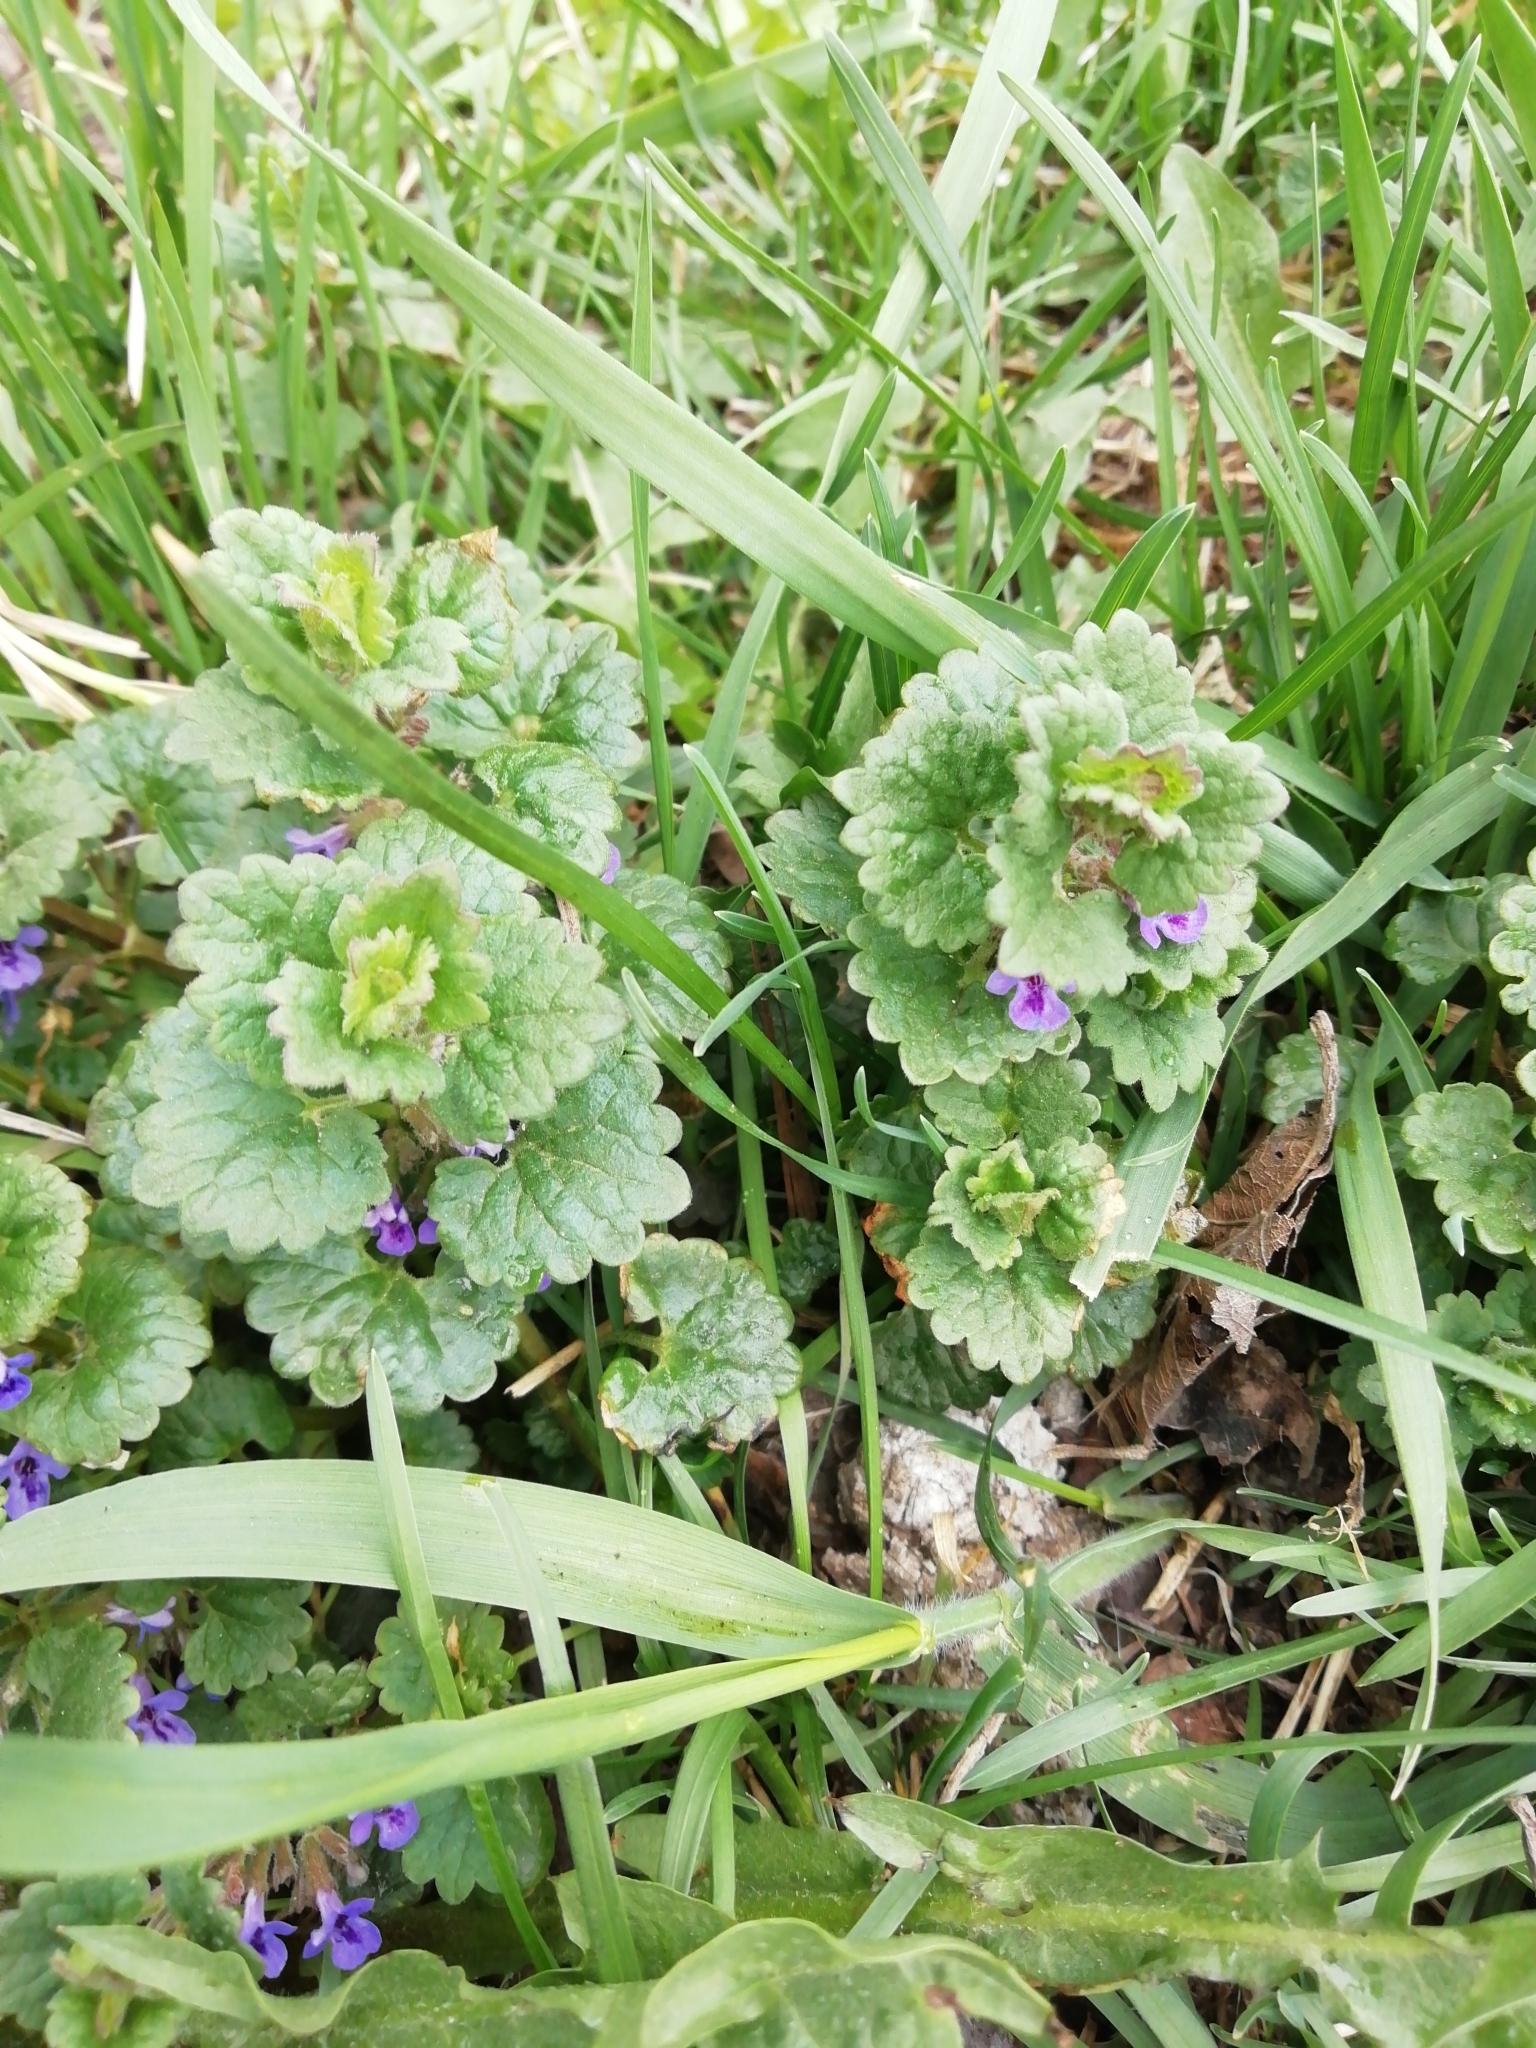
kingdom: Plantae
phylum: Tracheophyta
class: Magnoliopsida
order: Lamiales
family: Lamiaceae
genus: Glechoma
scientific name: Glechoma hederacea
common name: Ground ivy
